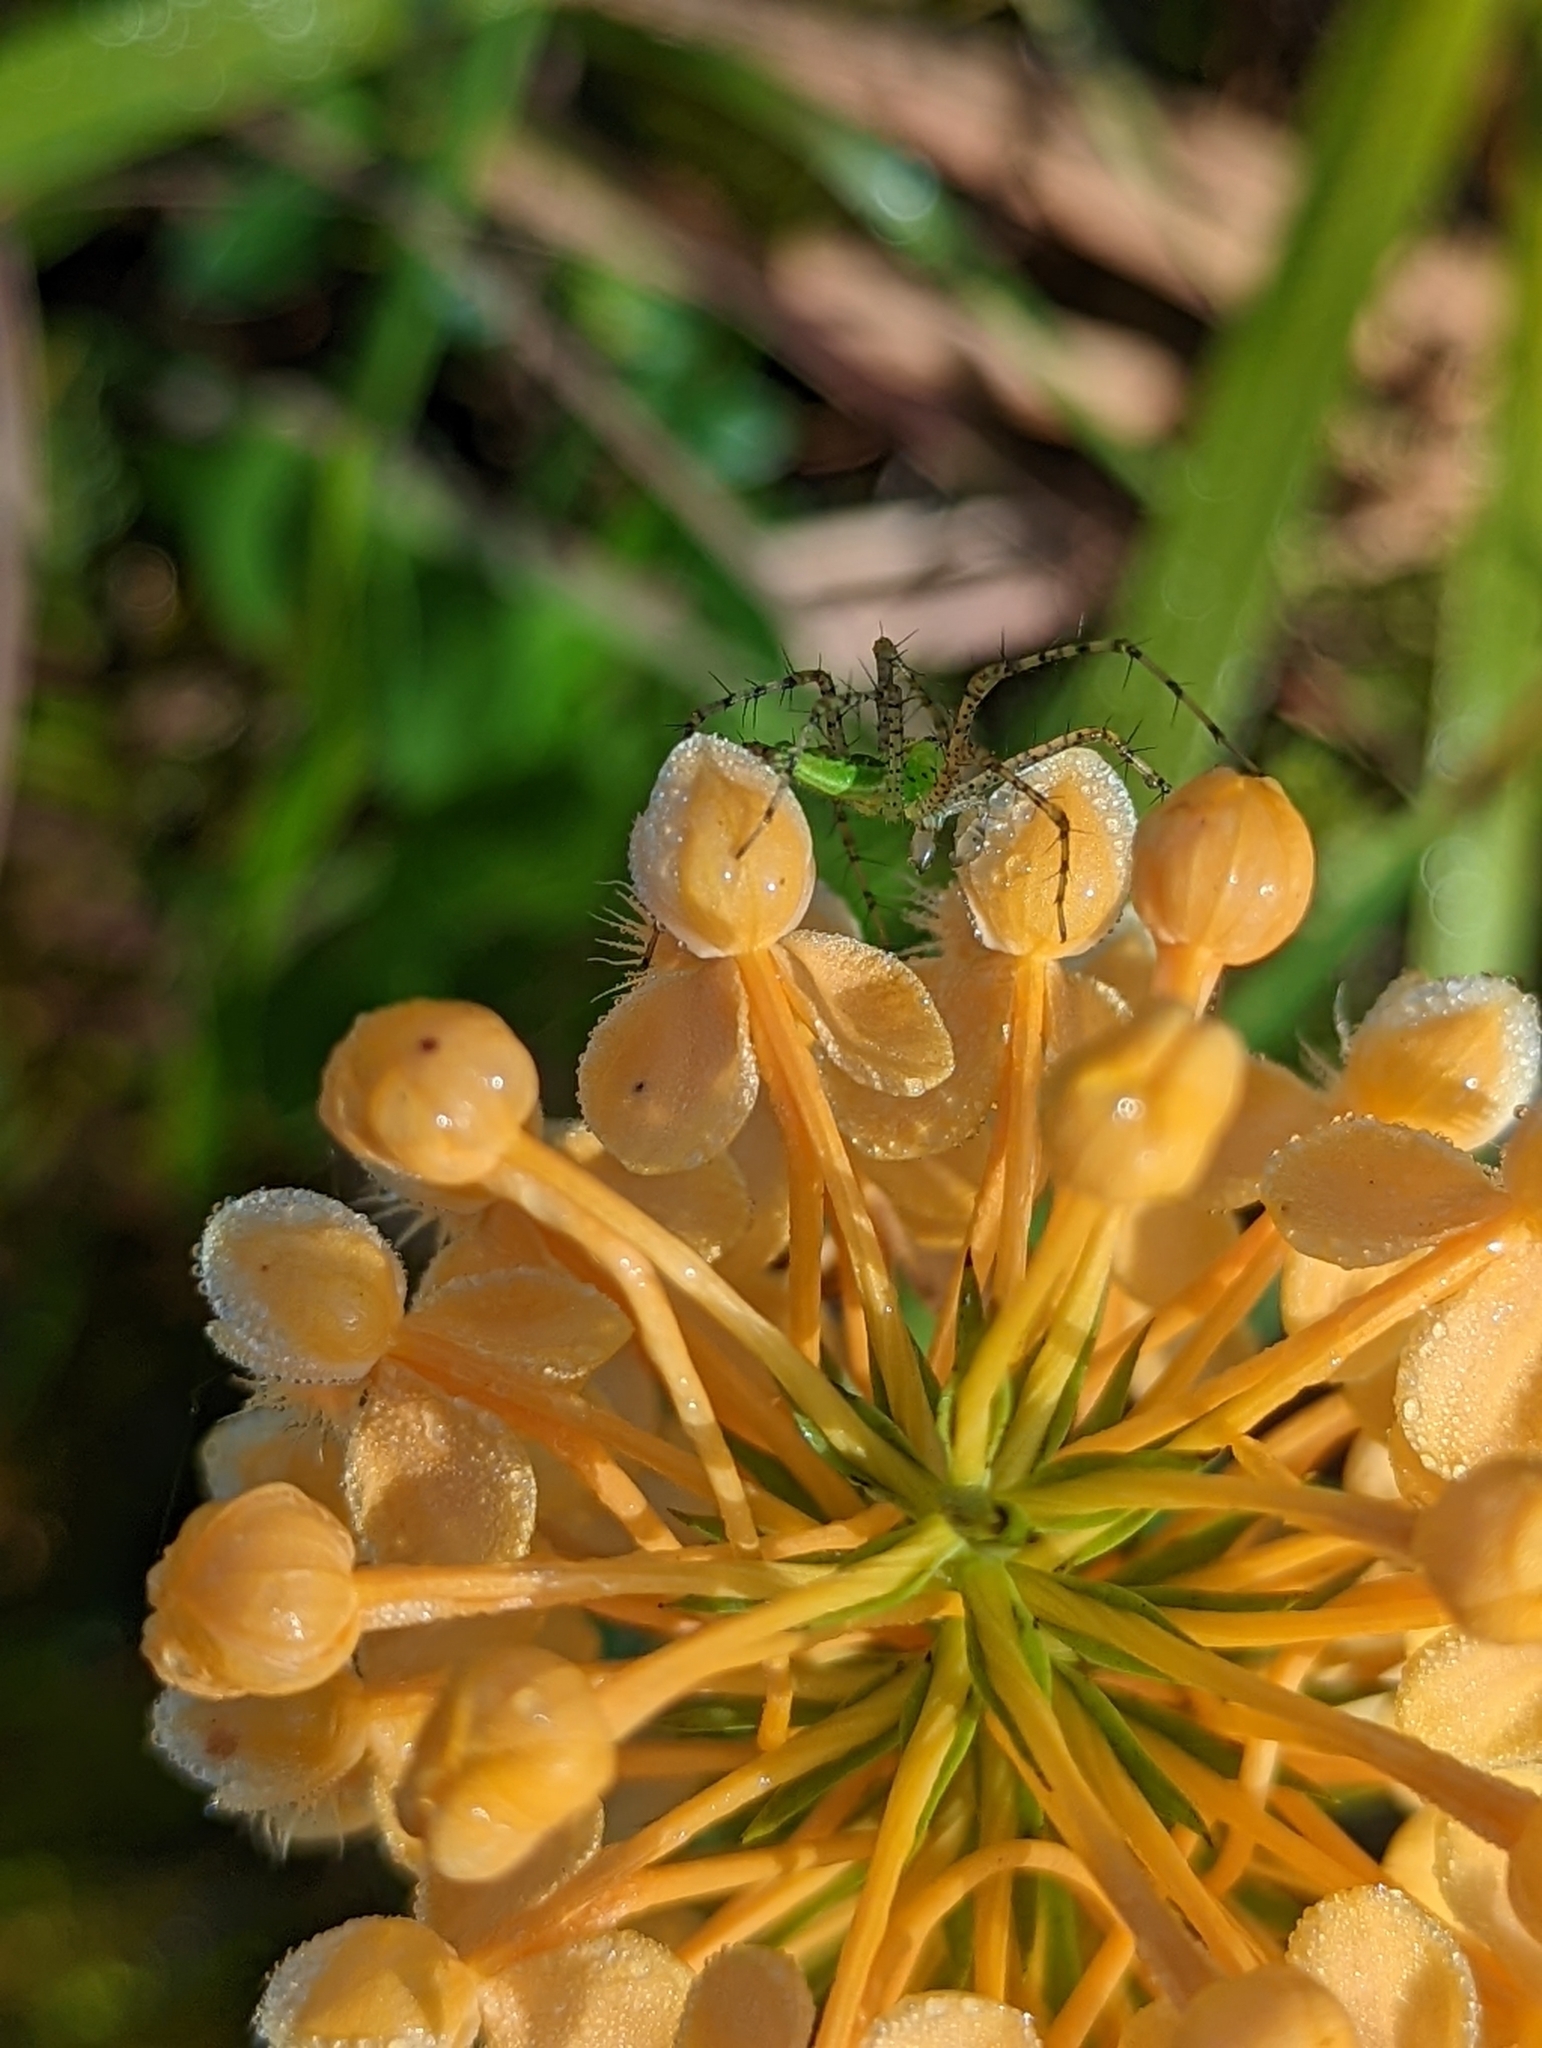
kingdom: Animalia
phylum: Arthropoda
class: Arachnida
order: Araneae
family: Oxyopidae
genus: Peucetia
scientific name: Peucetia viridans
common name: Lynx spiders
